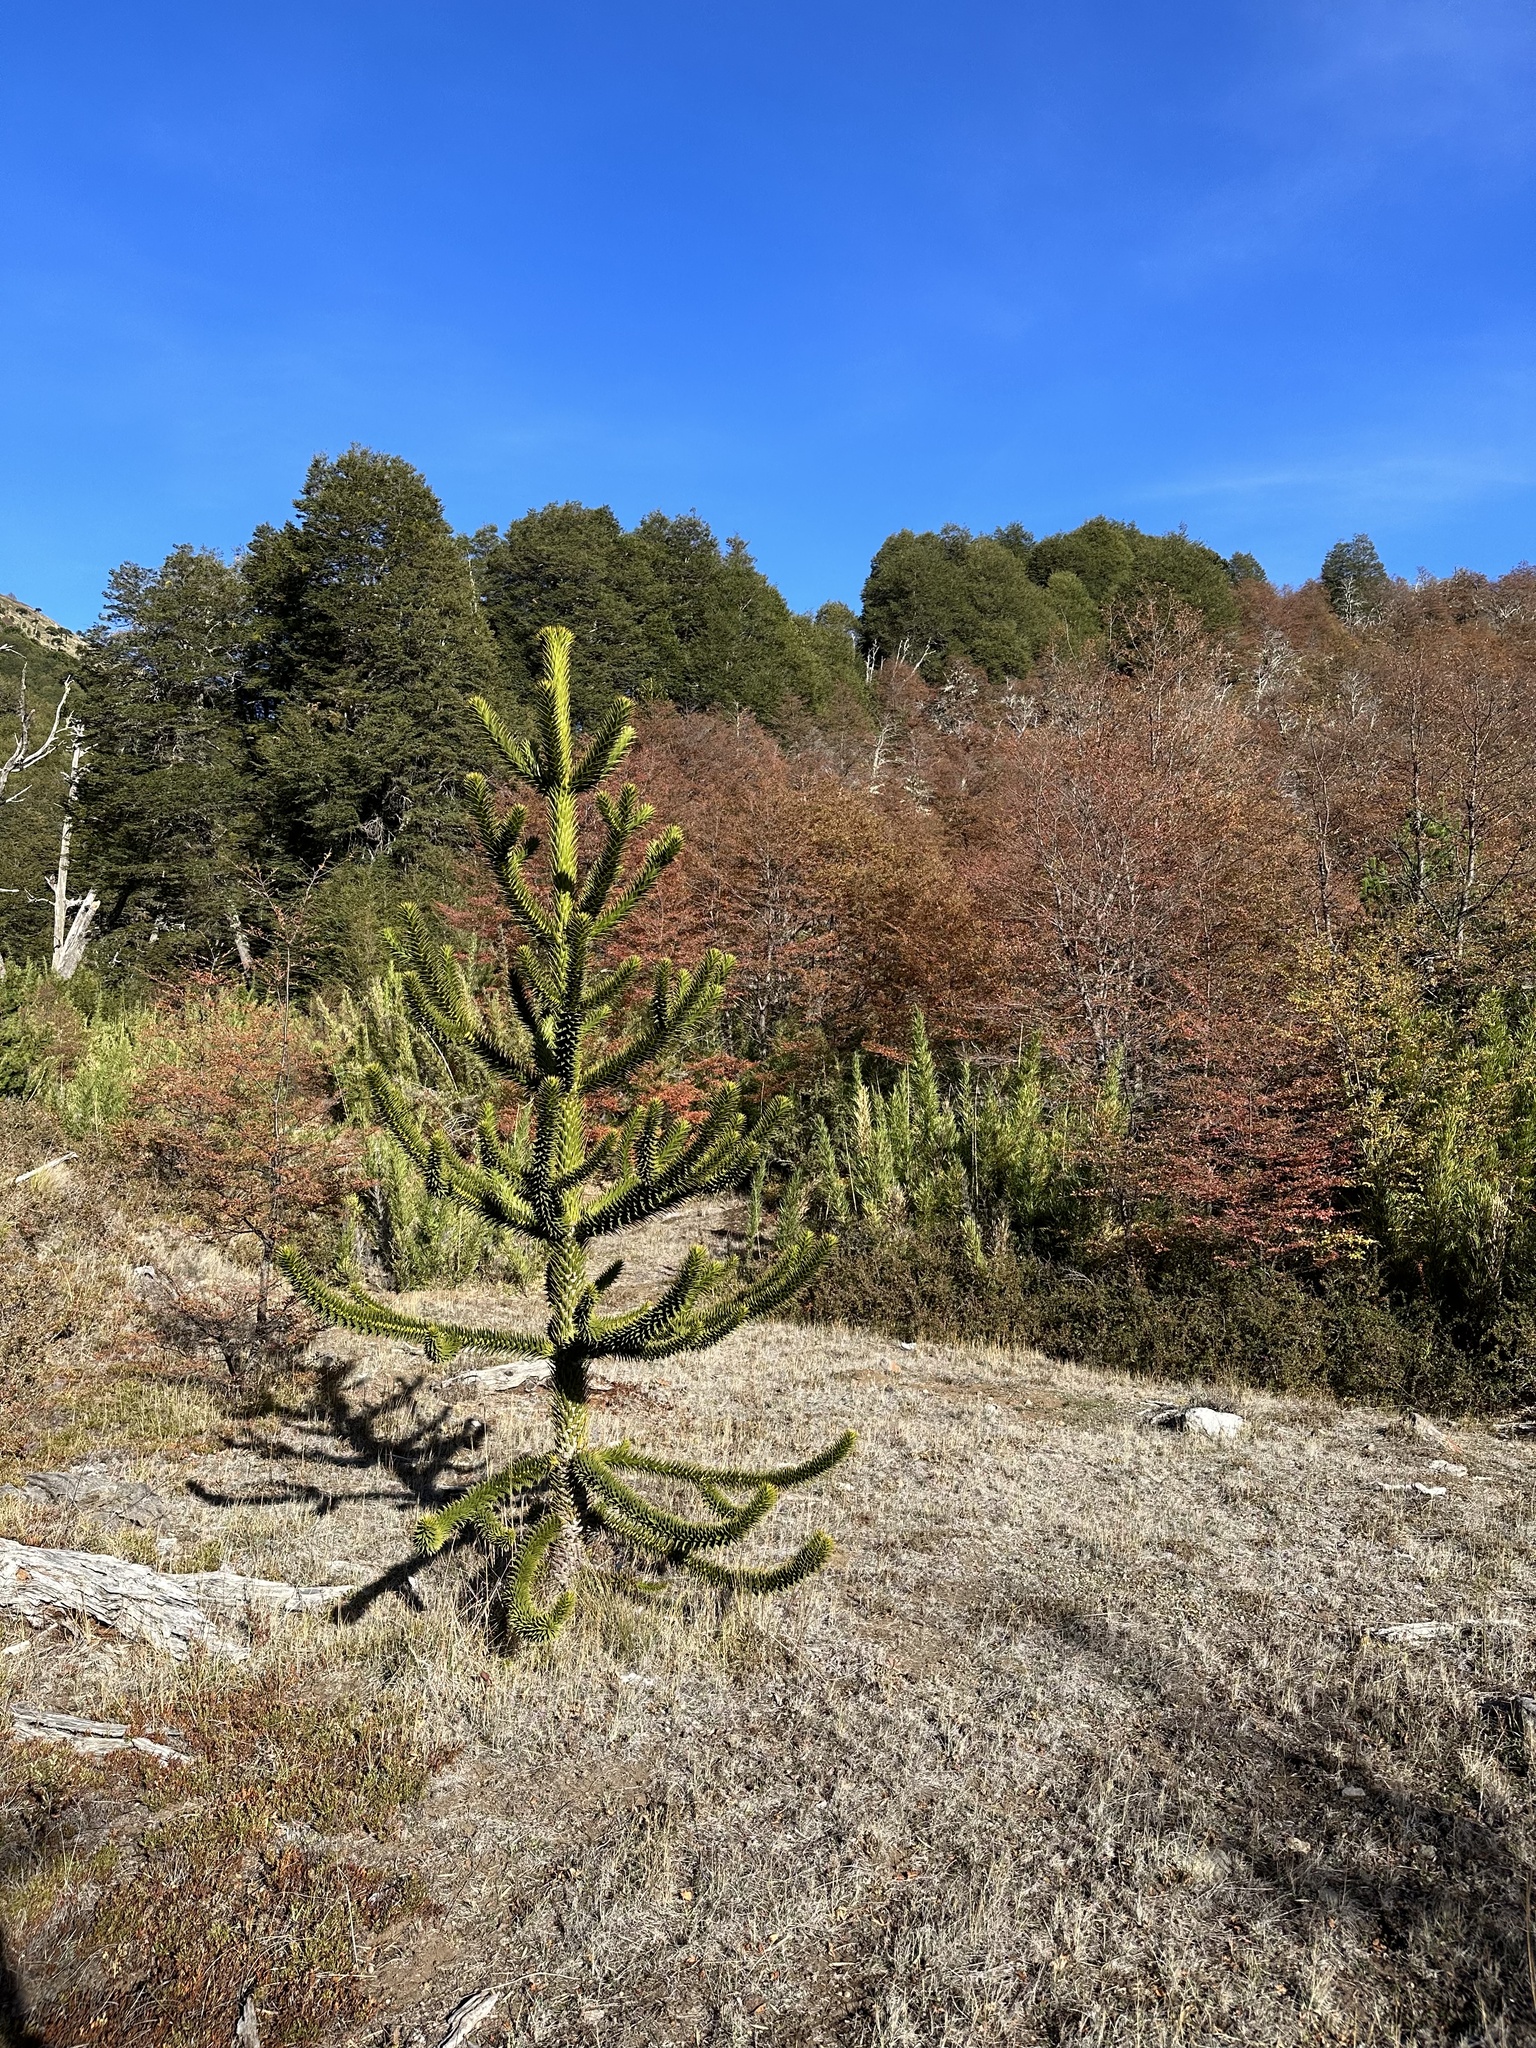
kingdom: Plantae
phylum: Tracheophyta
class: Pinopsida
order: Pinales
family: Araucariaceae
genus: Araucaria
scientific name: Araucaria araucana
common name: Monkey-puzzle
